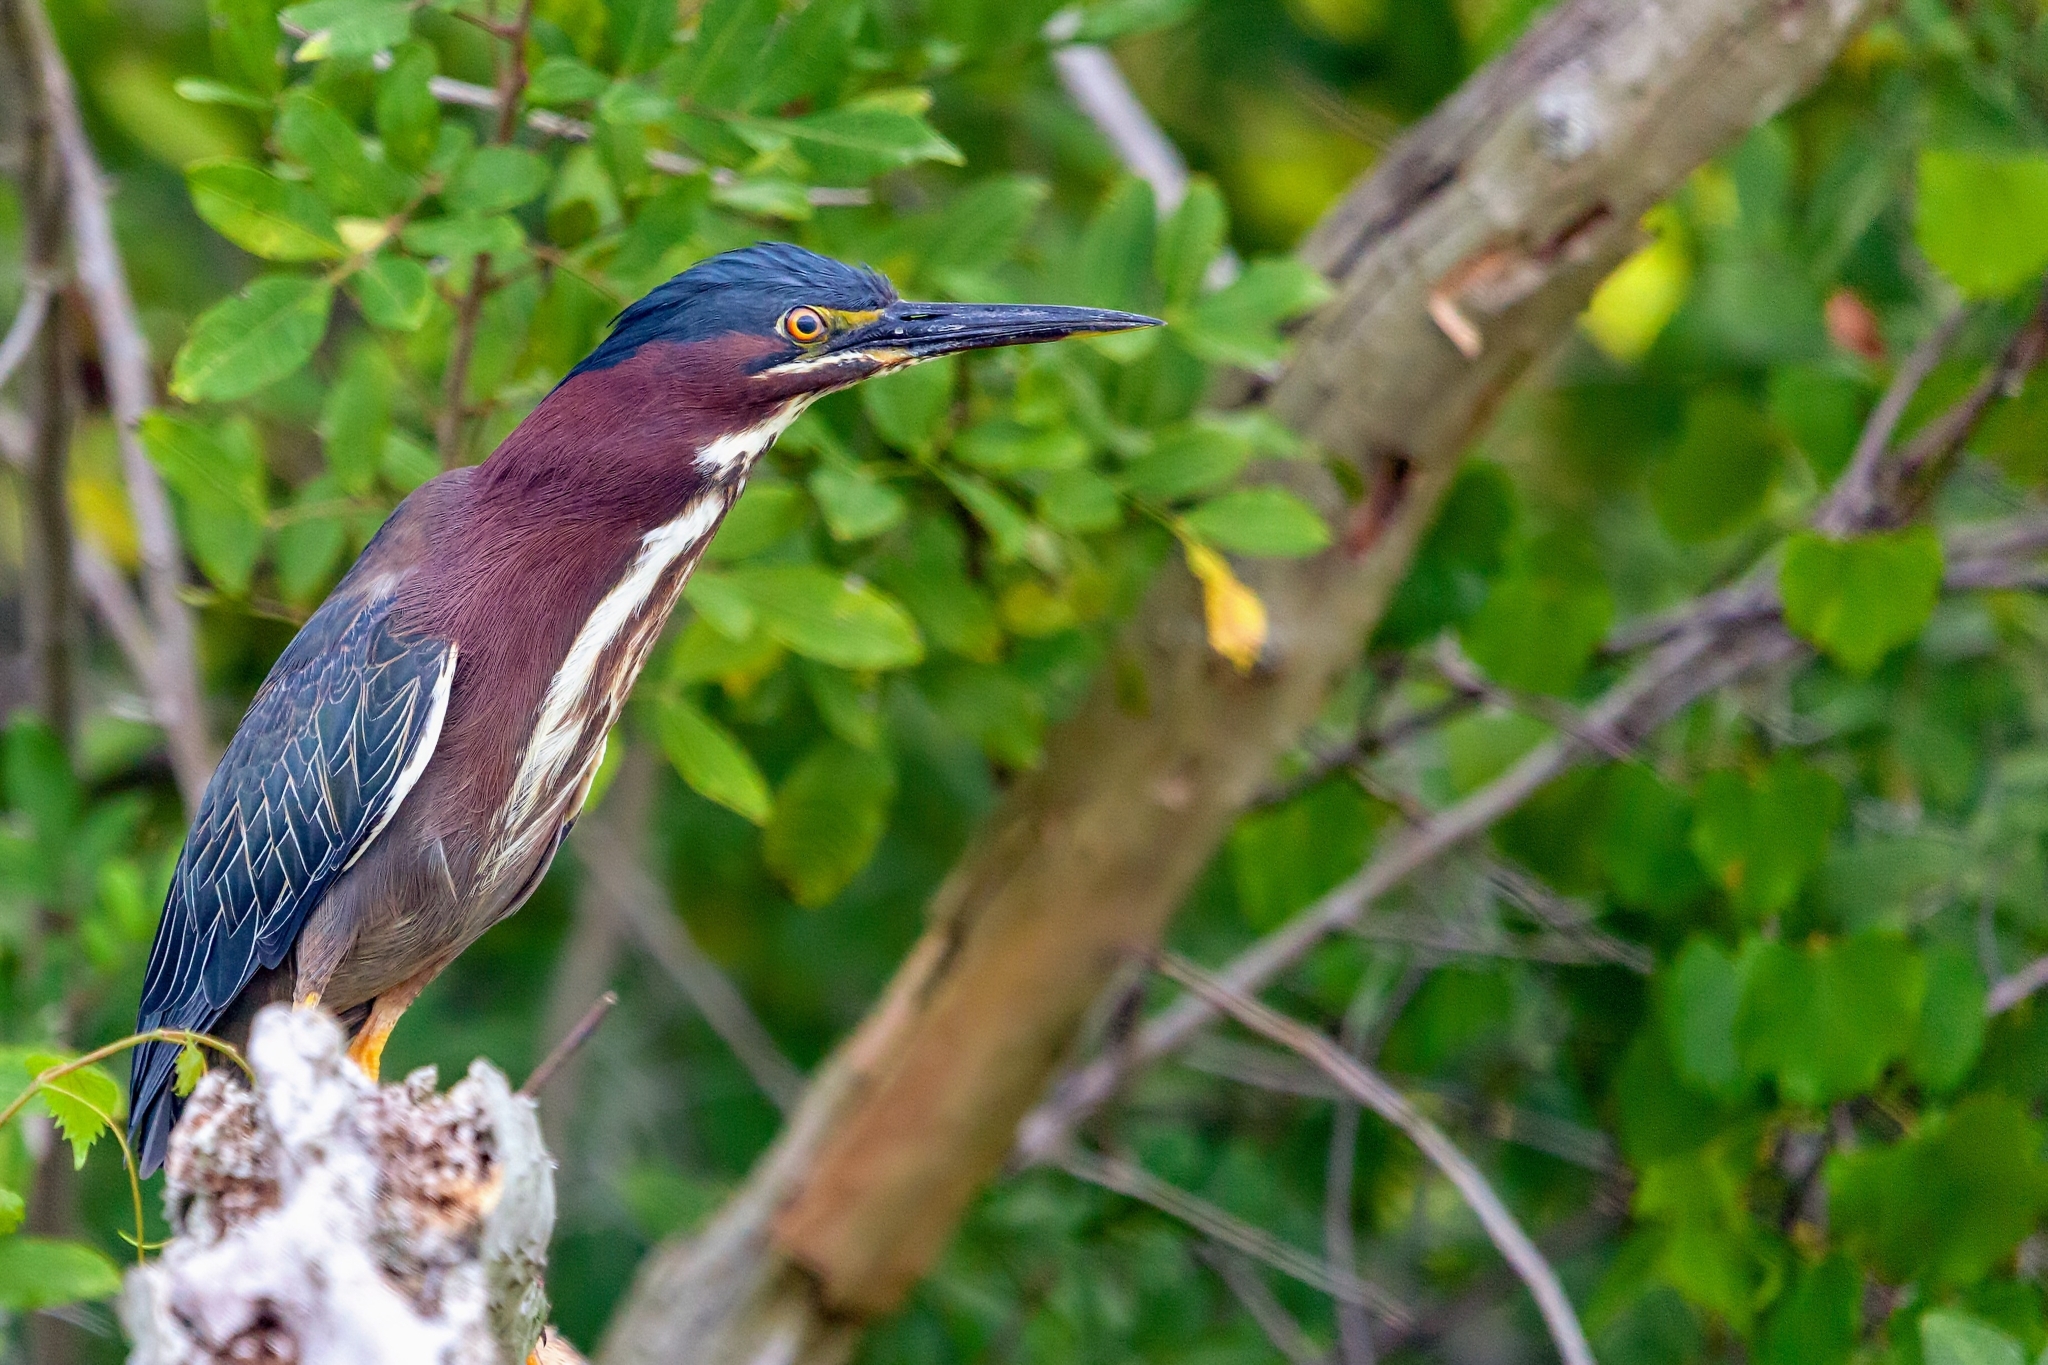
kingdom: Animalia
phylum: Chordata
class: Aves
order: Pelecaniformes
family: Ardeidae
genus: Butorides
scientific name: Butorides virescens
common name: Green heron
